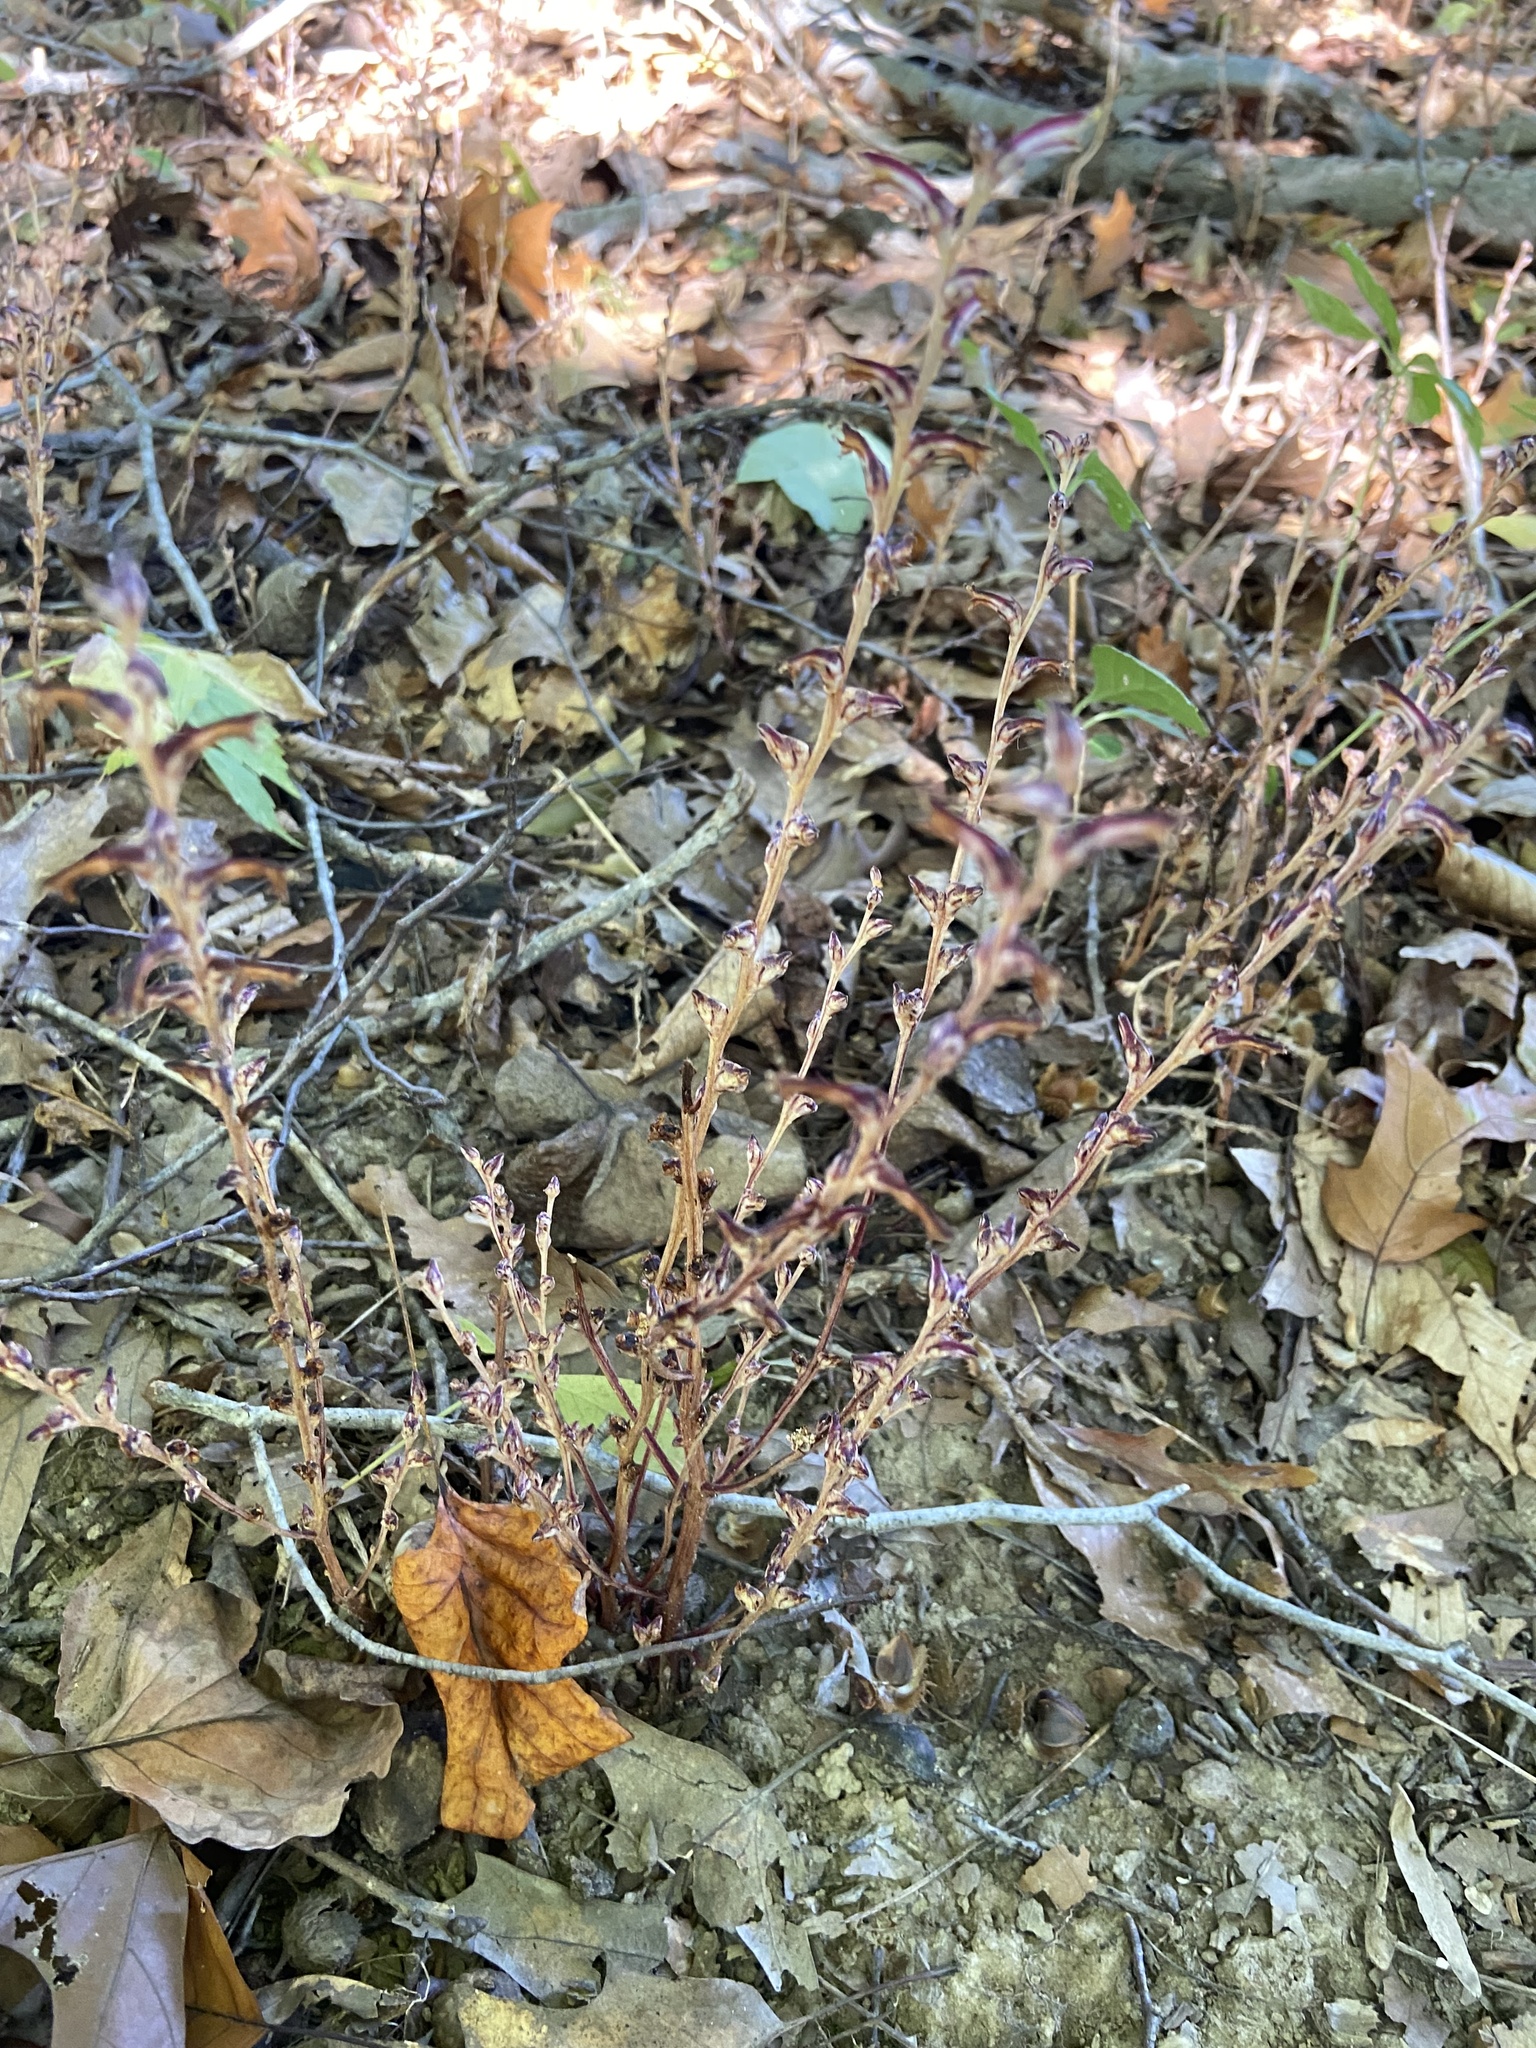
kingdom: Plantae
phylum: Tracheophyta
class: Magnoliopsida
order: Lamiales
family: Orobanchaceae
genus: Epifagus
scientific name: Epifagus virginiana
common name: Beechdrops
